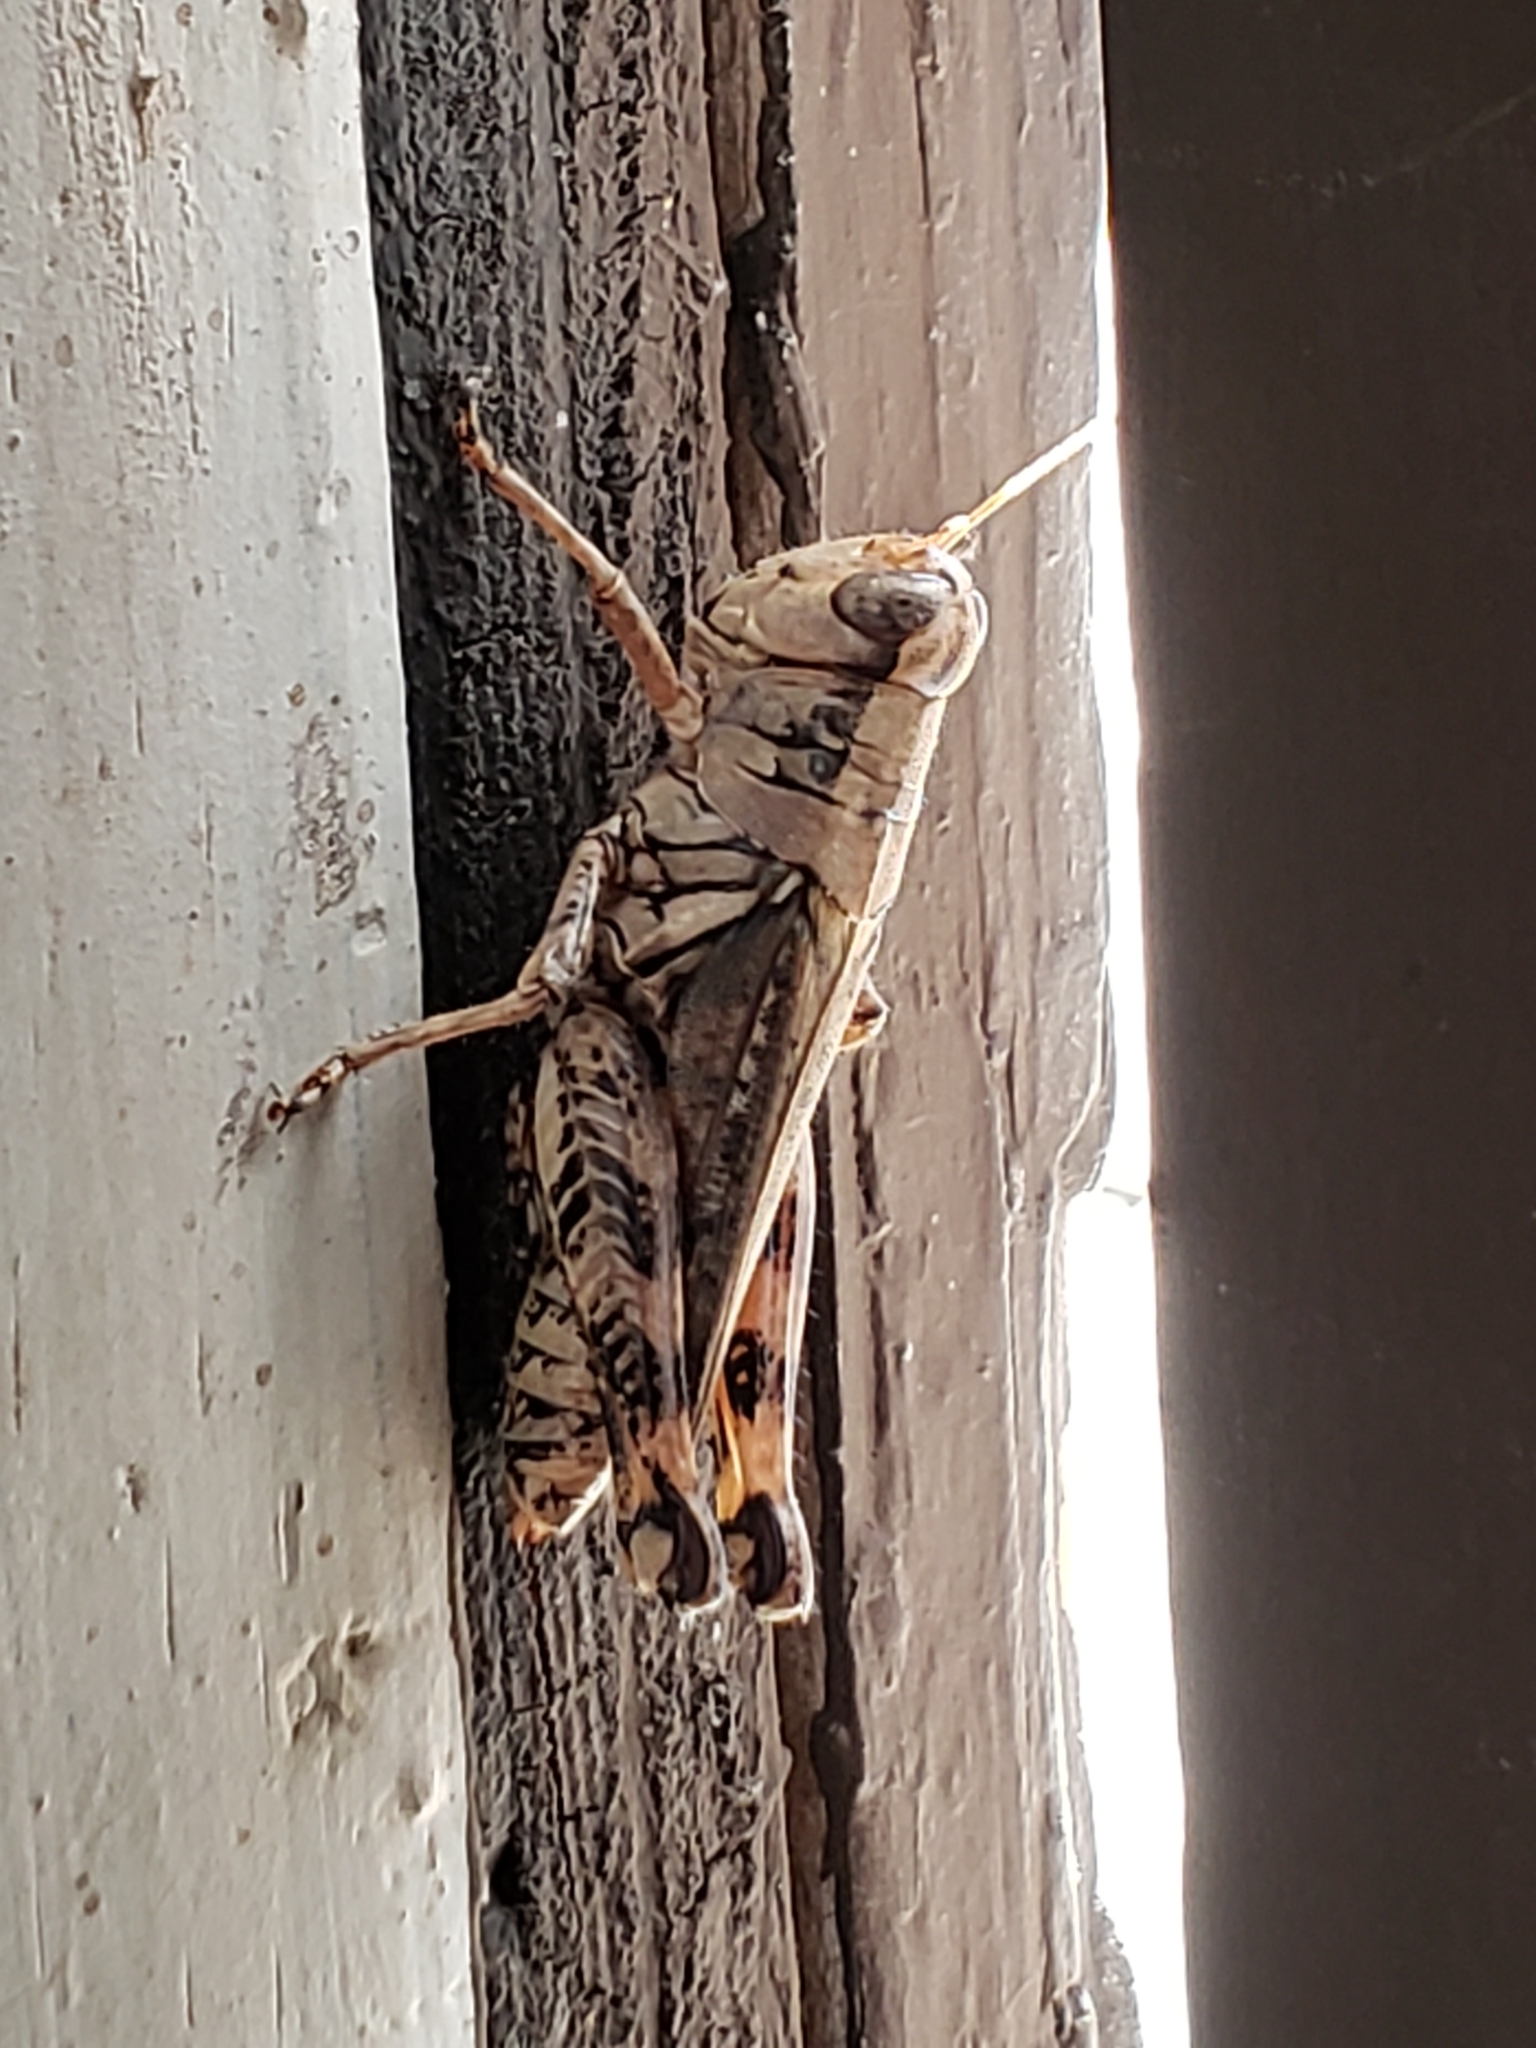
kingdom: Animalia
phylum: Arthropoda
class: Insecta
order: Orthoptera
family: Acrididae
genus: Melanoplus
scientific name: Melanoplus ponderosus
